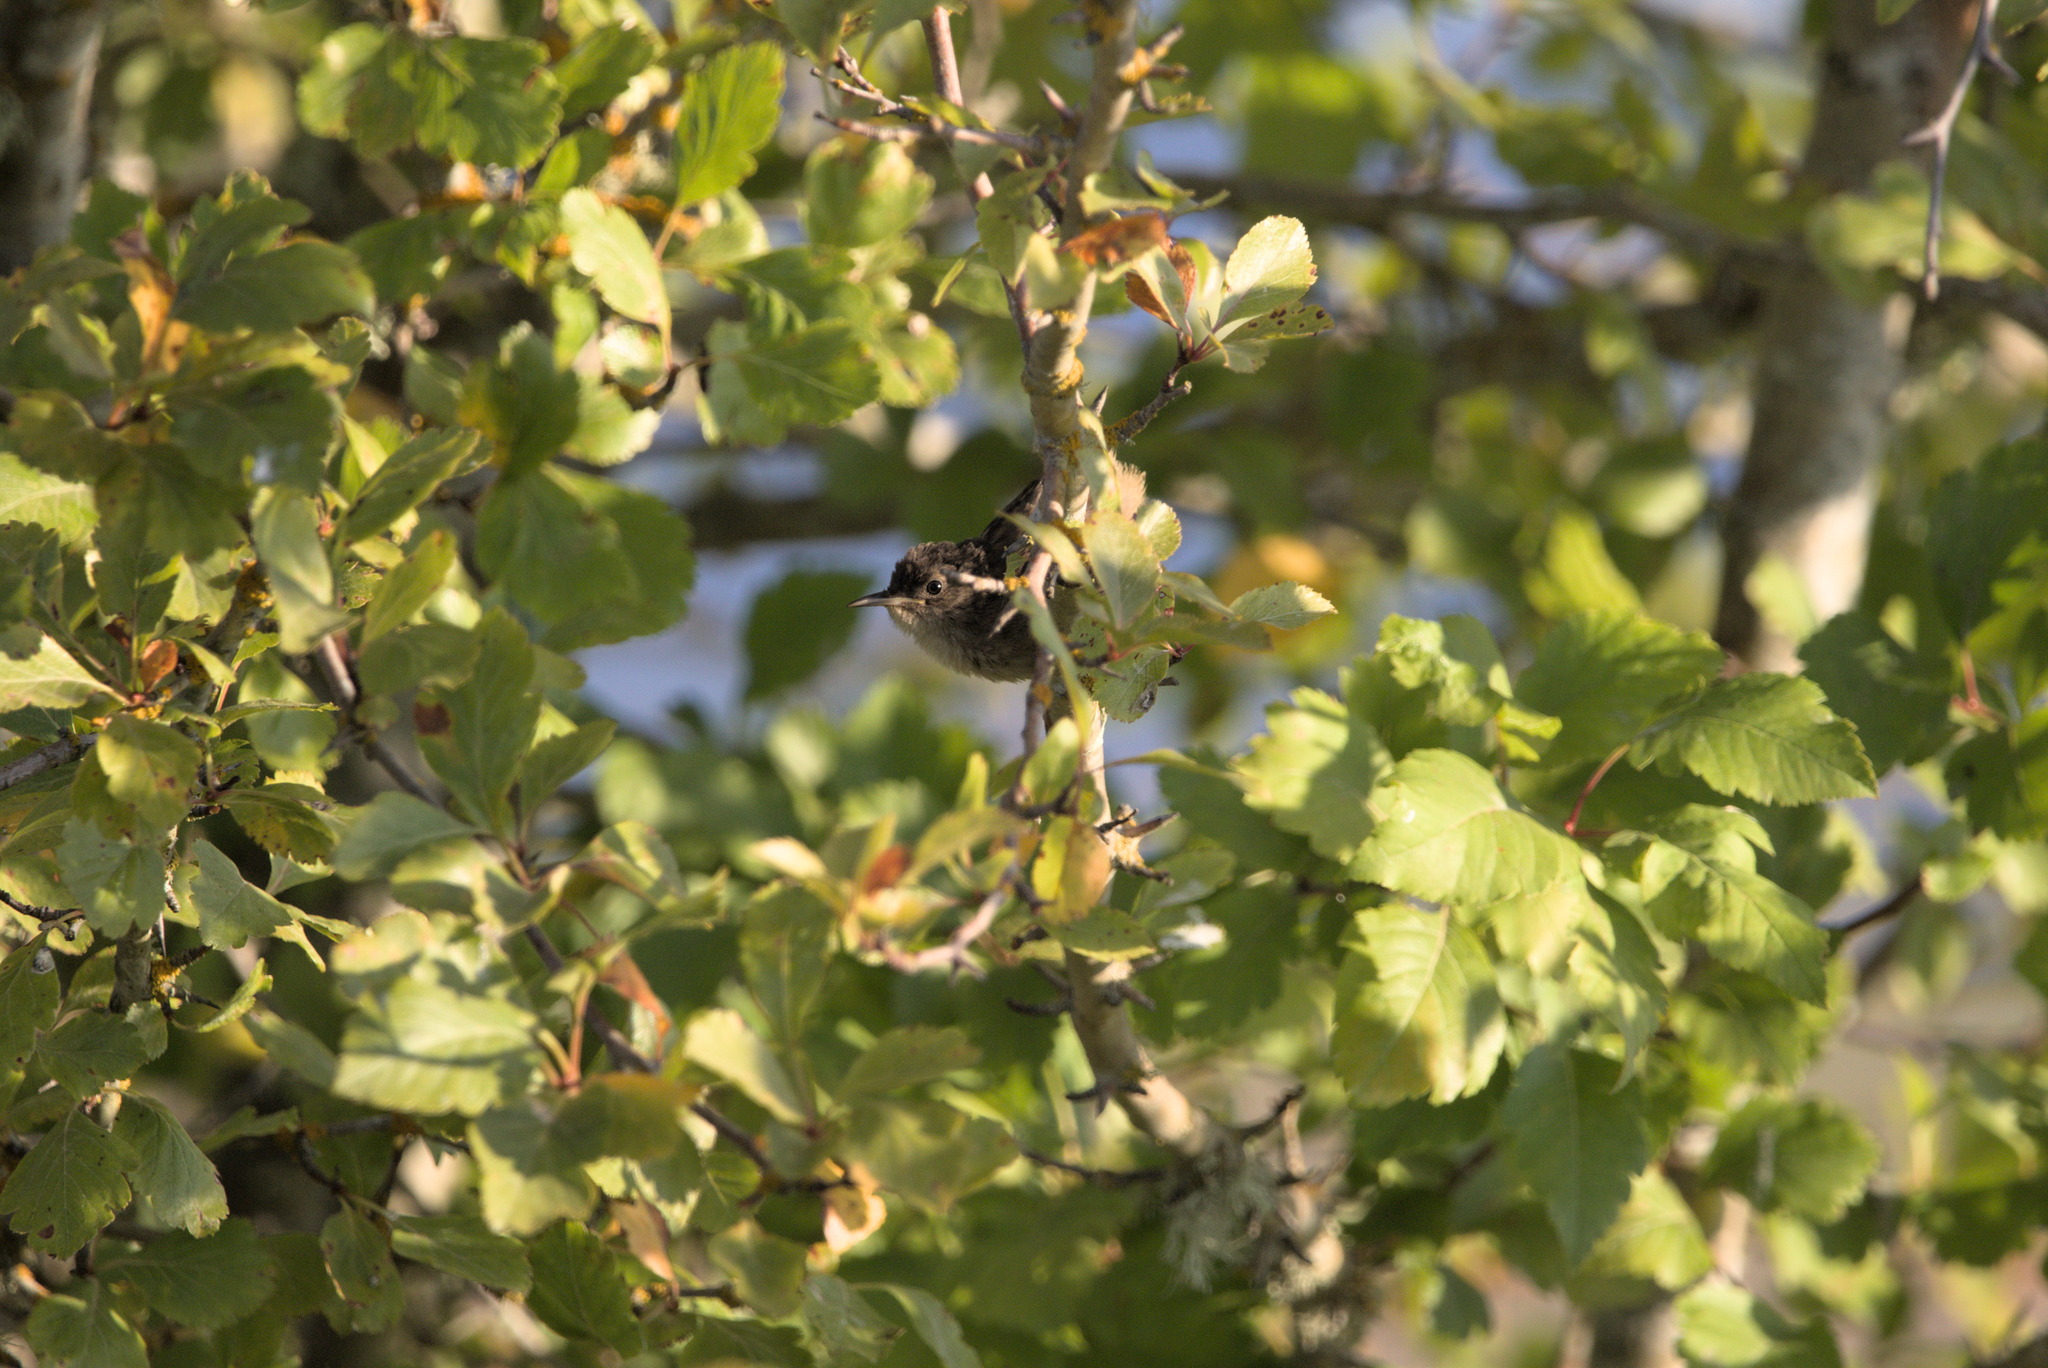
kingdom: Animalia
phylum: Chordata
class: Aves
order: Passeriformes
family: Troglodytidae
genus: Troglodytes
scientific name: Troglodytes aedon
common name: House wren
